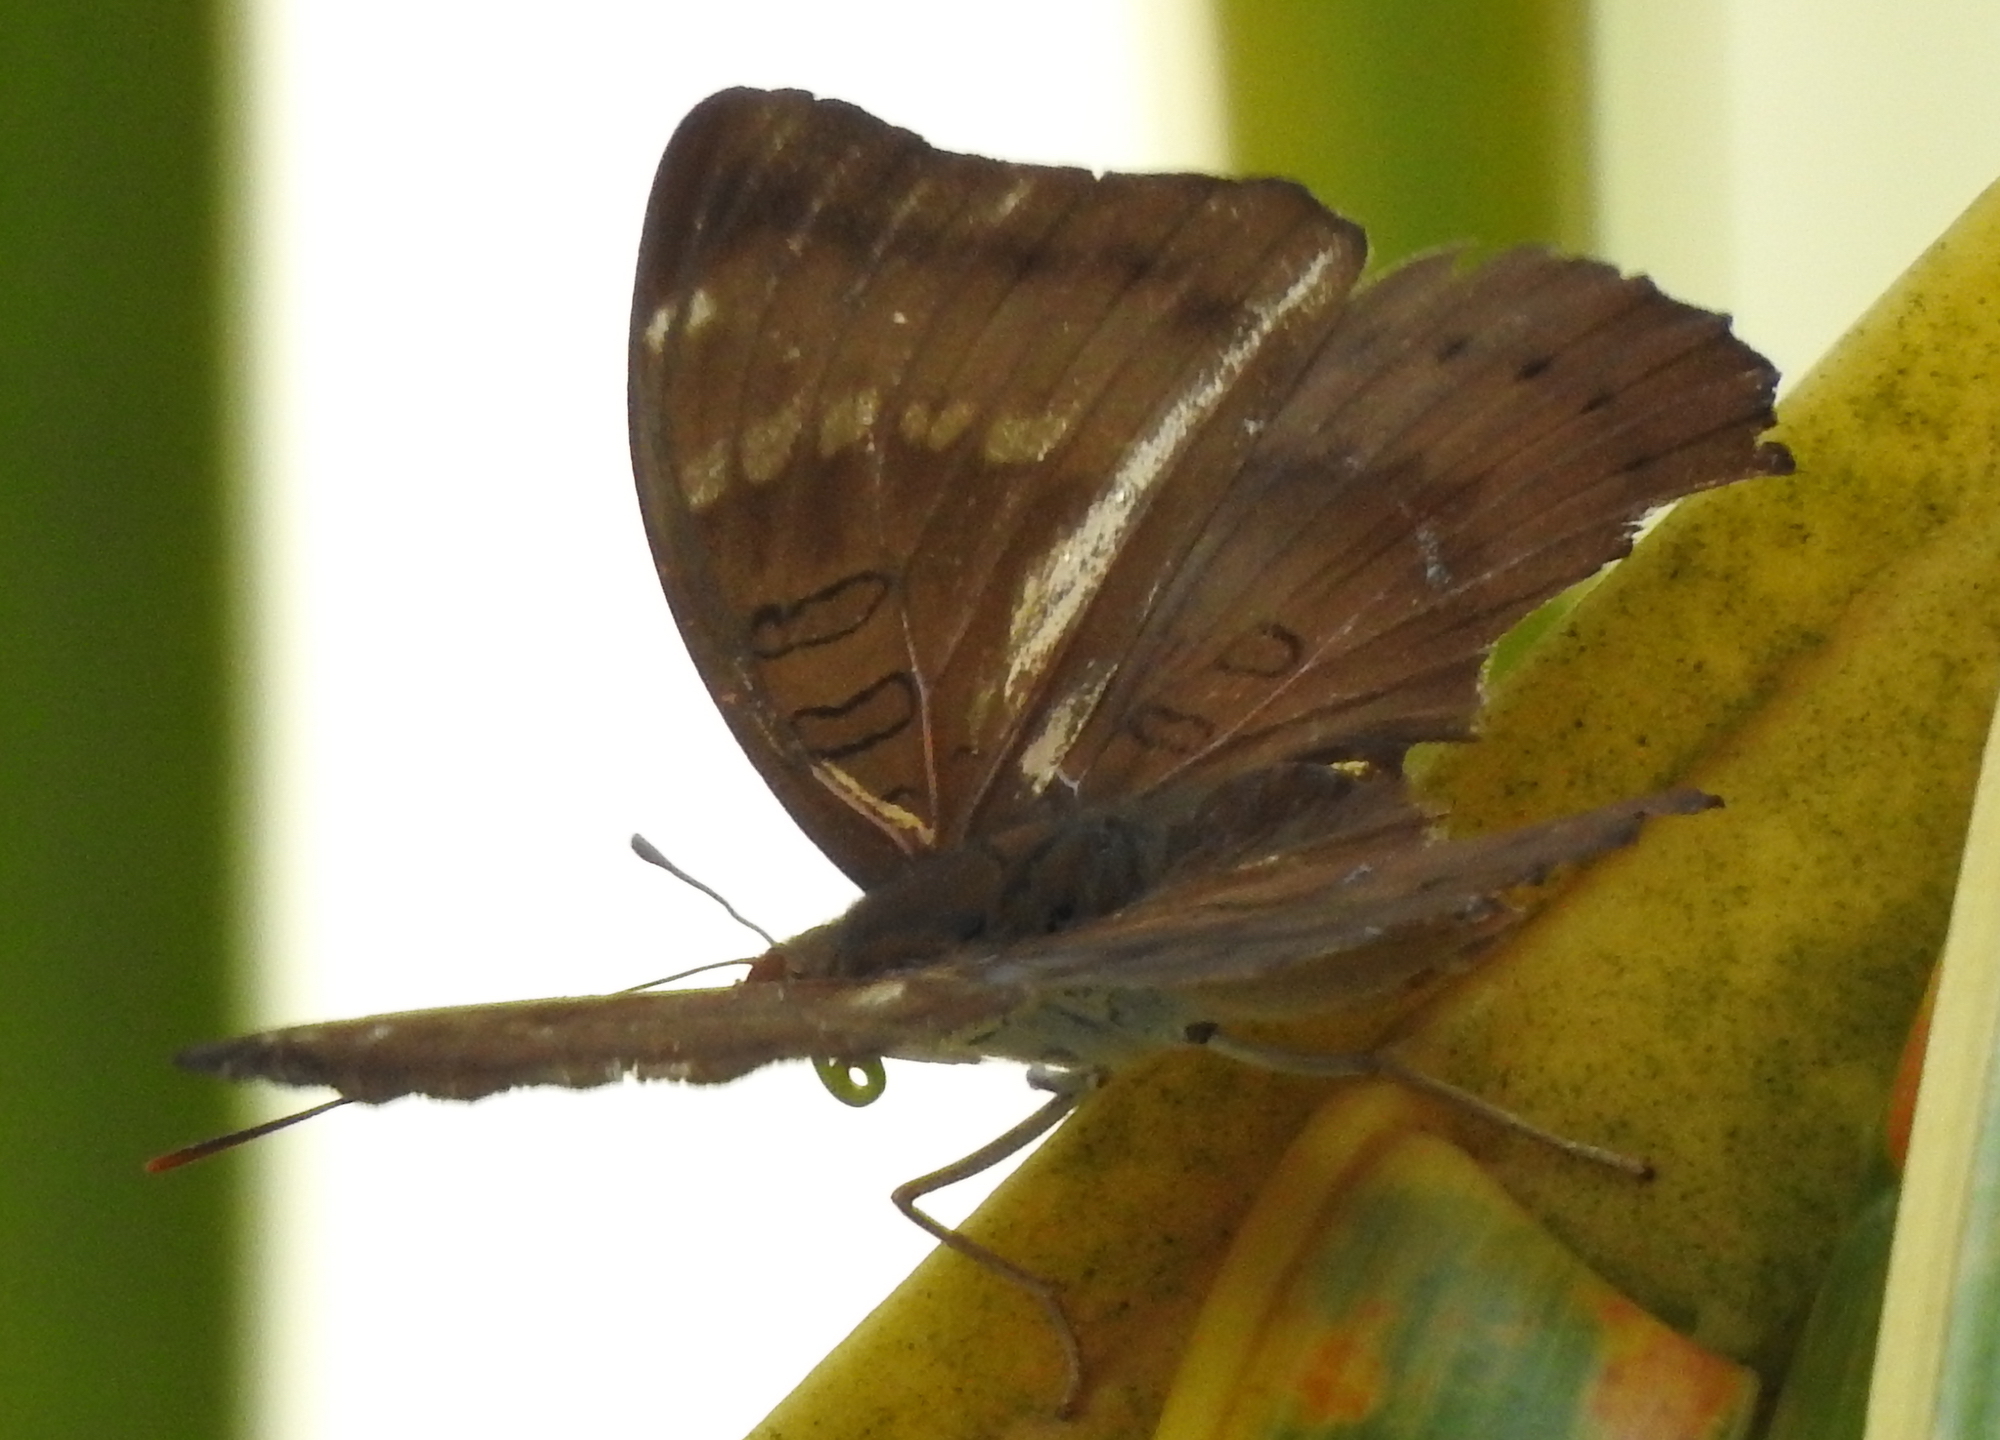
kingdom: Animalia
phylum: Arthropoda
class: Insecta
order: Lepidoptera
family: Nymphalidae
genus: Euthalia
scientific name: Euthalia aconthea
